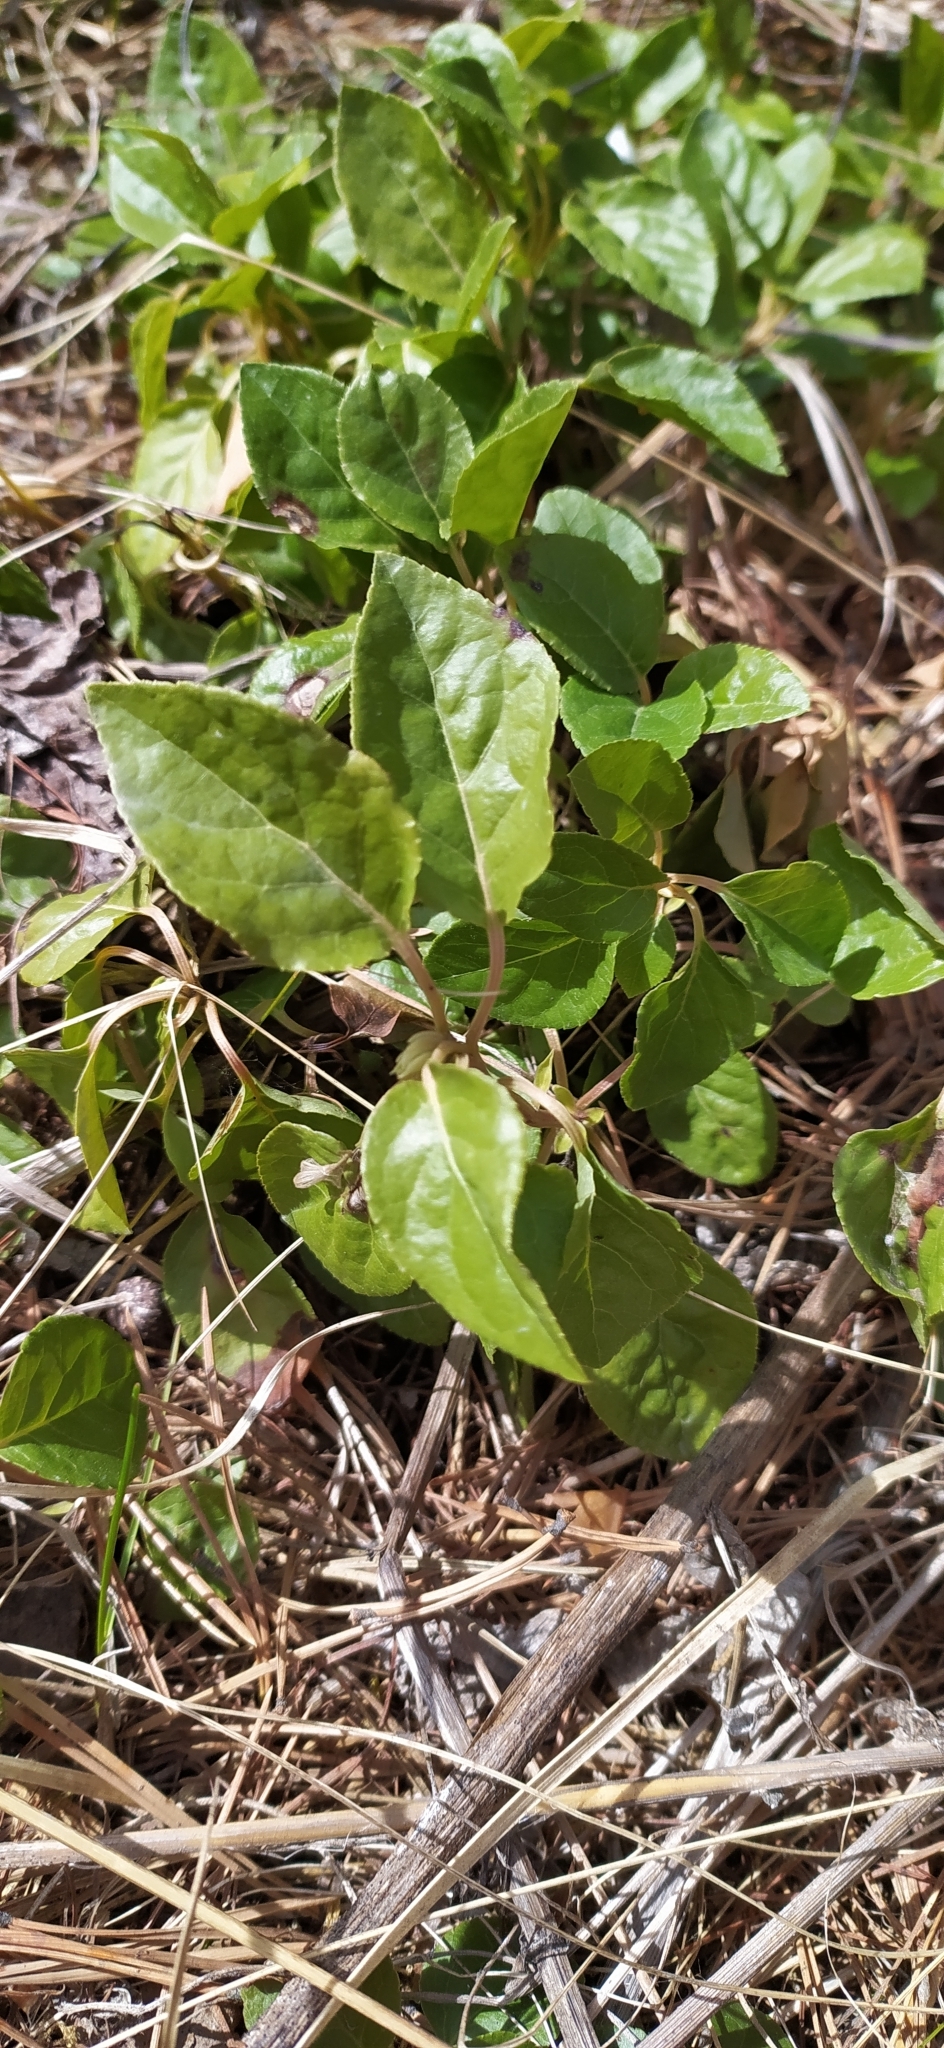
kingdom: Plantae
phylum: Tracheophyta
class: Magnoliopsida
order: Ericales
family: Ericaceae
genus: Orthilia
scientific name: Orthilia secunda
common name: One-sided orthilia
